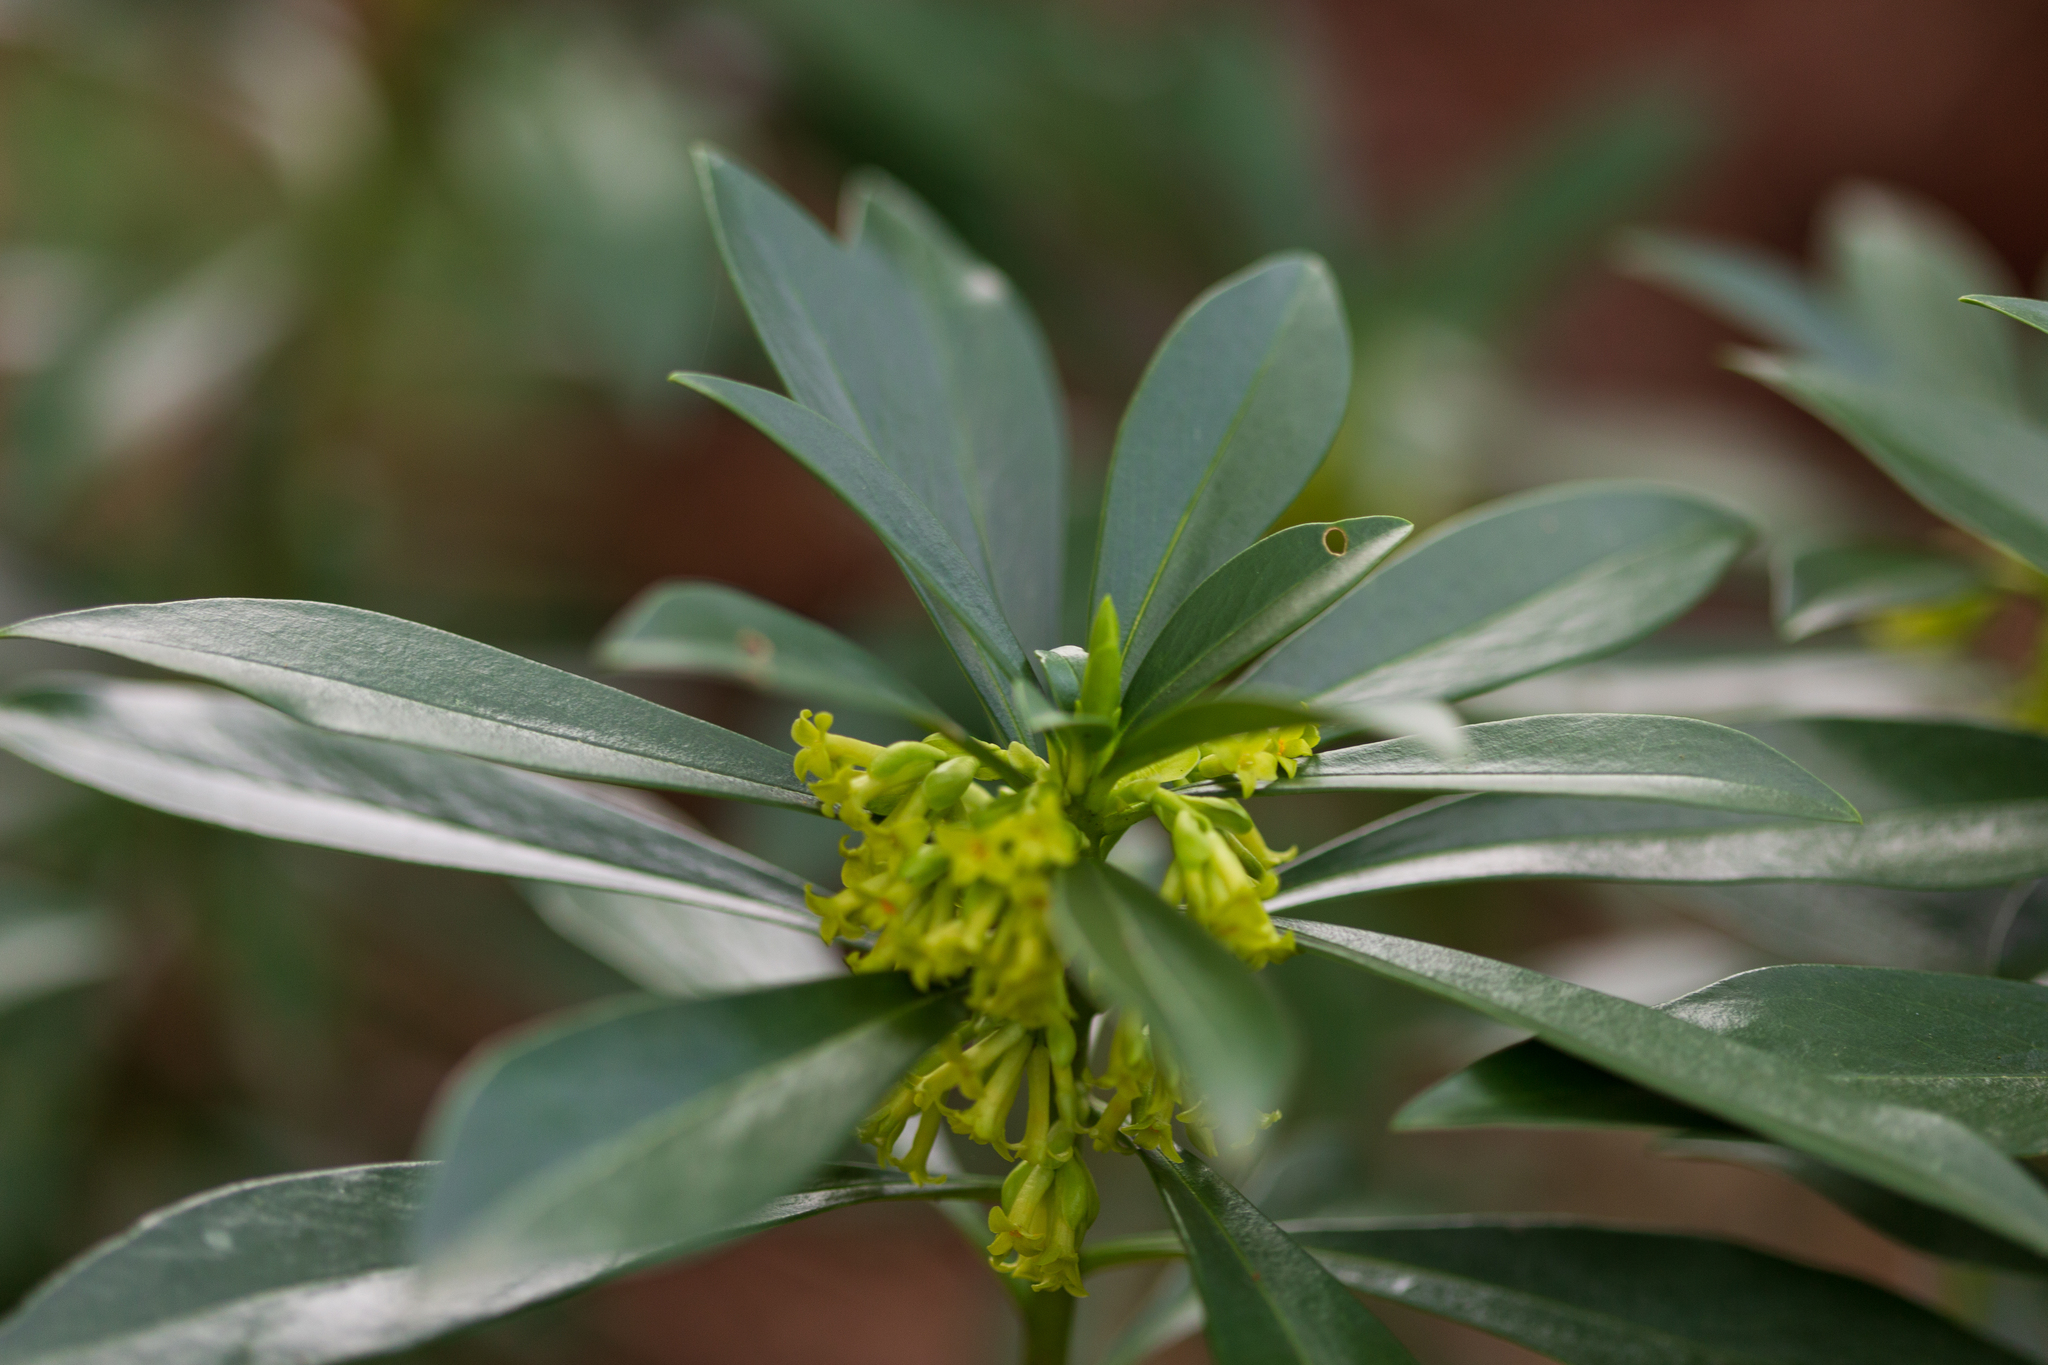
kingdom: Plantae
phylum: Tracheophyta
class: Magnoliopsida
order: Malvales
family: Thymelaeaceae
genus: Daphne
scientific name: Daphne laureola
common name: Spurge-laurel
